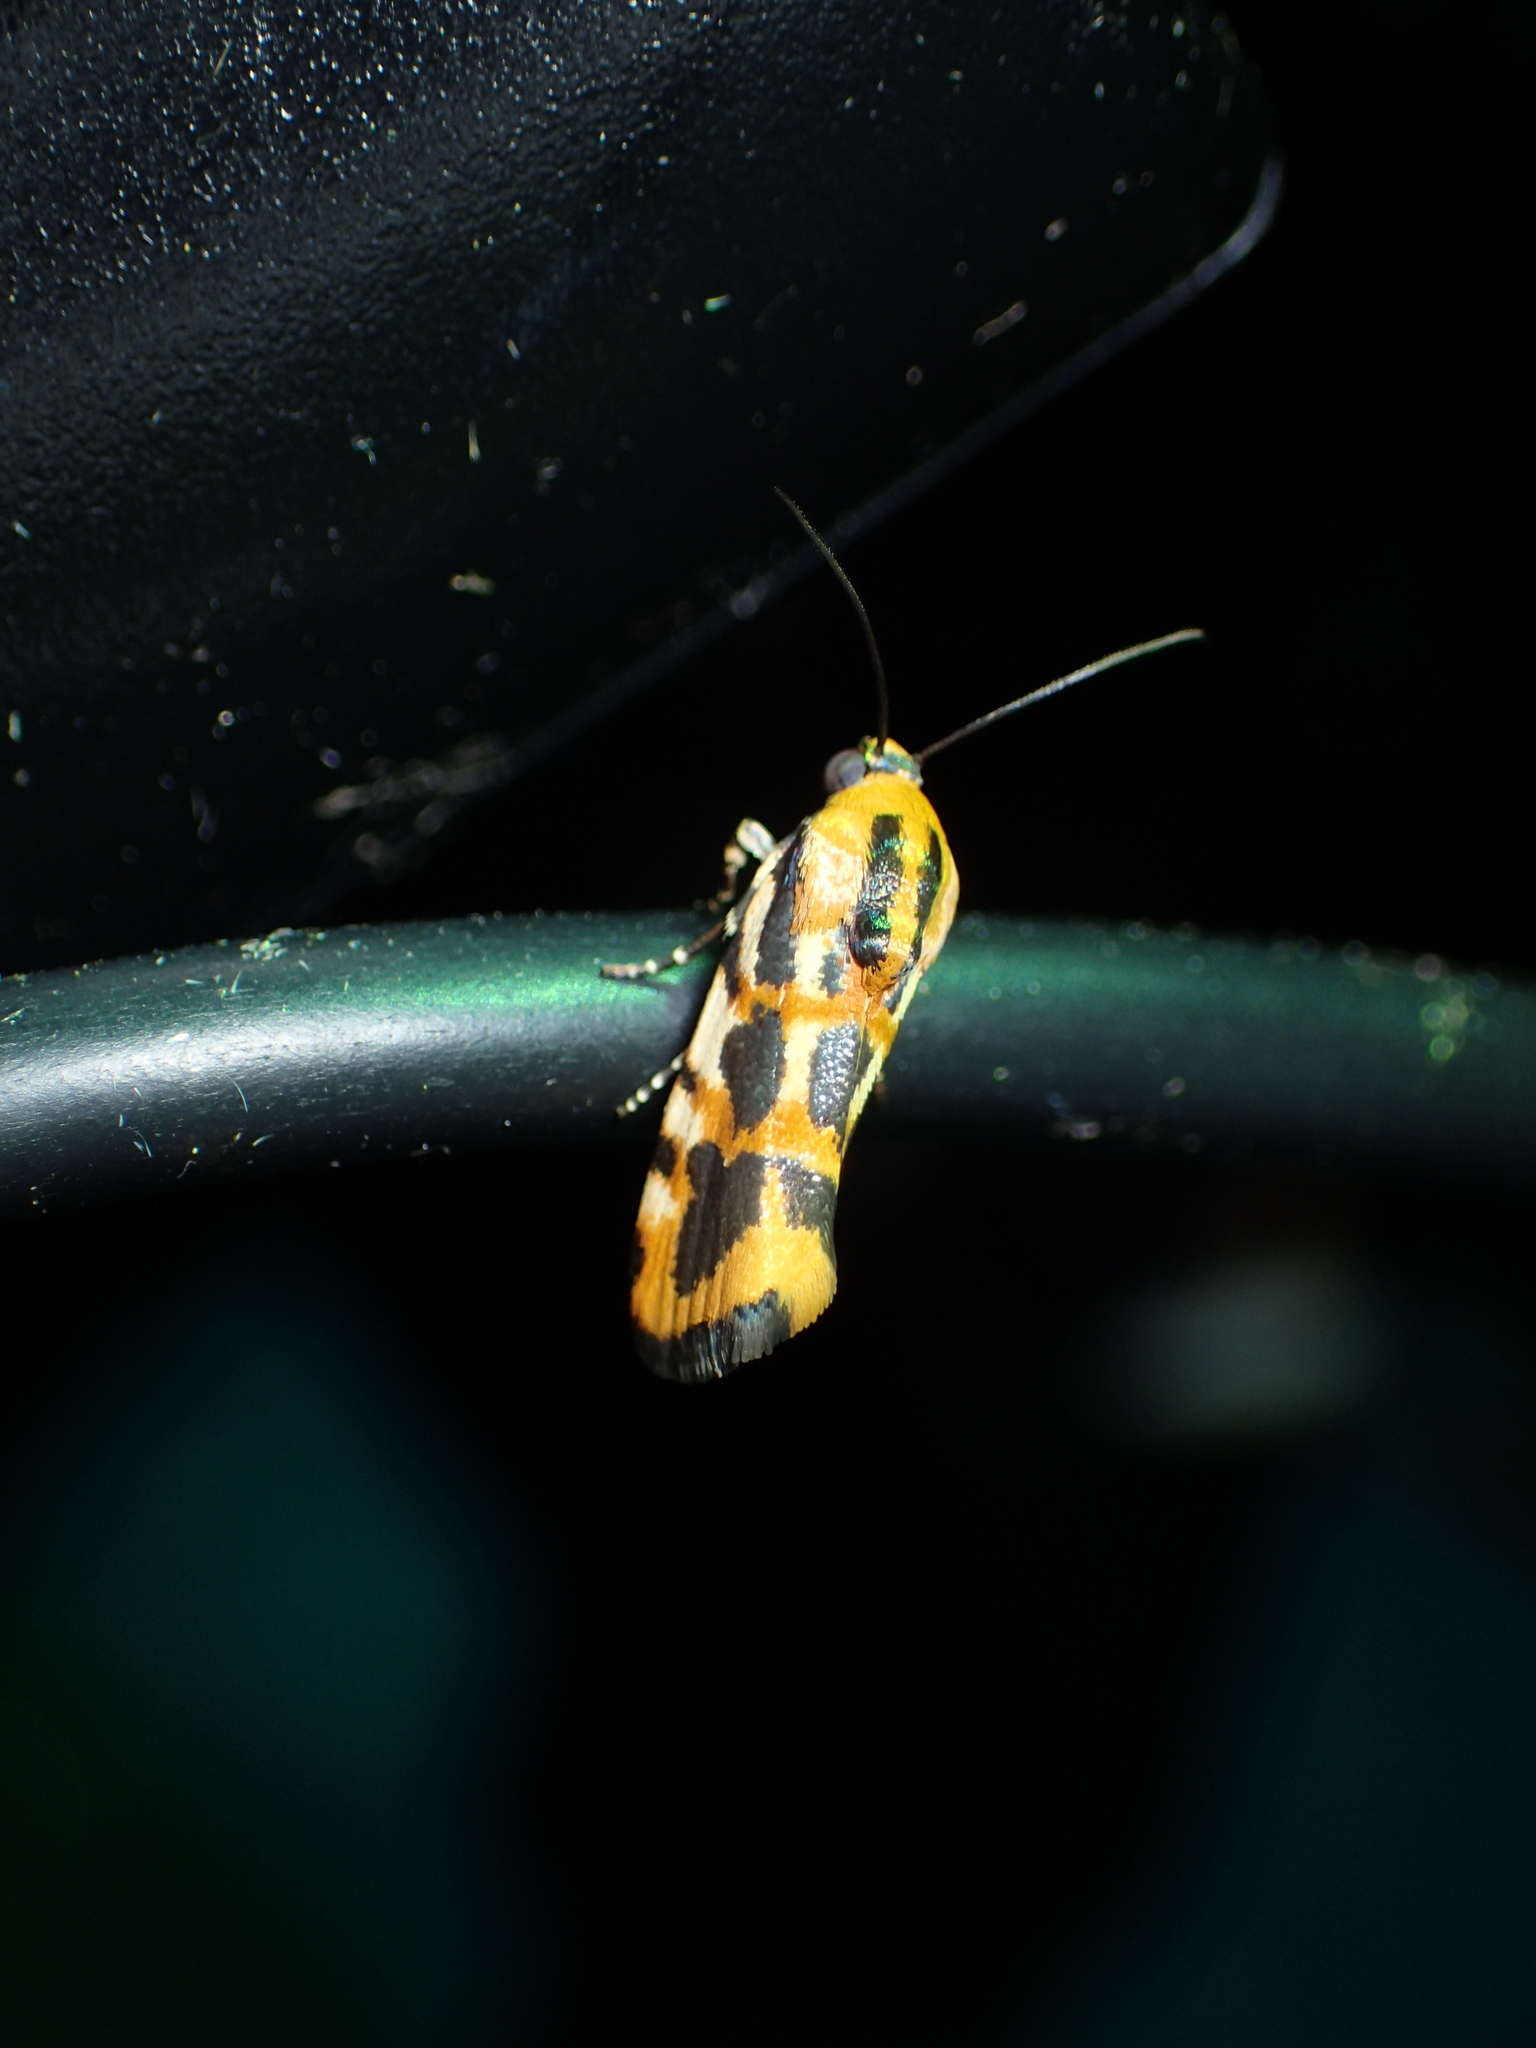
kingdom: Animalia
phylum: Arthropoda
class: Insecta
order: Lepidoptera
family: Noctuidae
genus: Acontia
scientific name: Acontia leo
